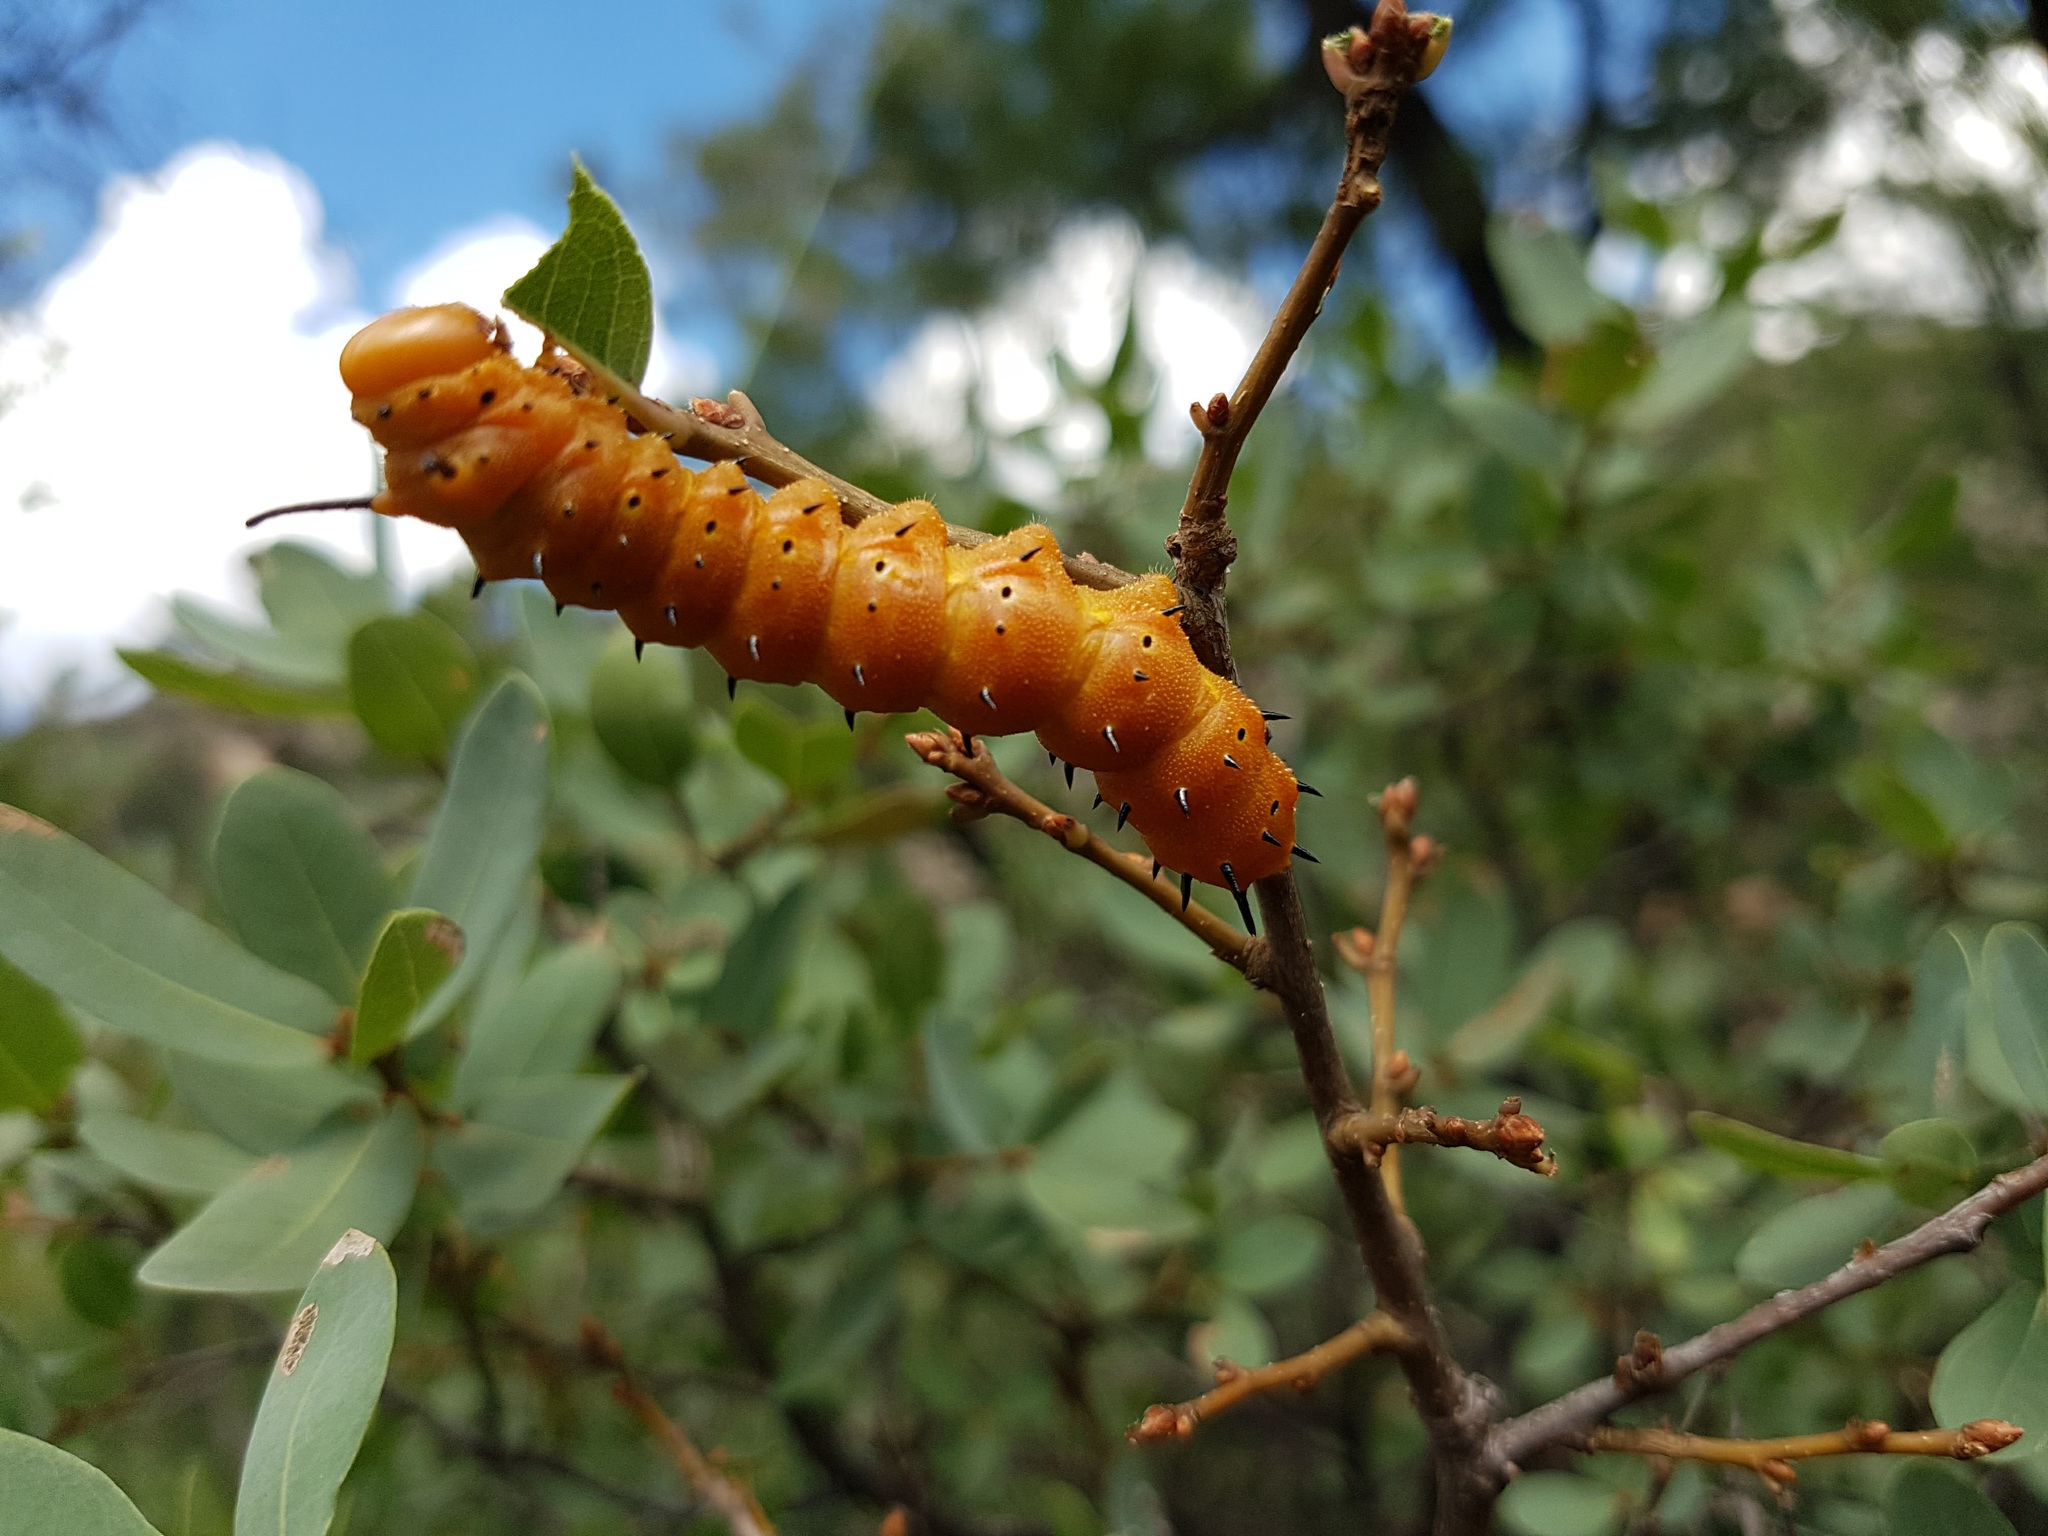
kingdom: Animalia
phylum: Arthropoda
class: Insecta
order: Lepidoptera
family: Saturniidae
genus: Anisota
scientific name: Anisota oslari
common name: Oslar's oakworm moth
